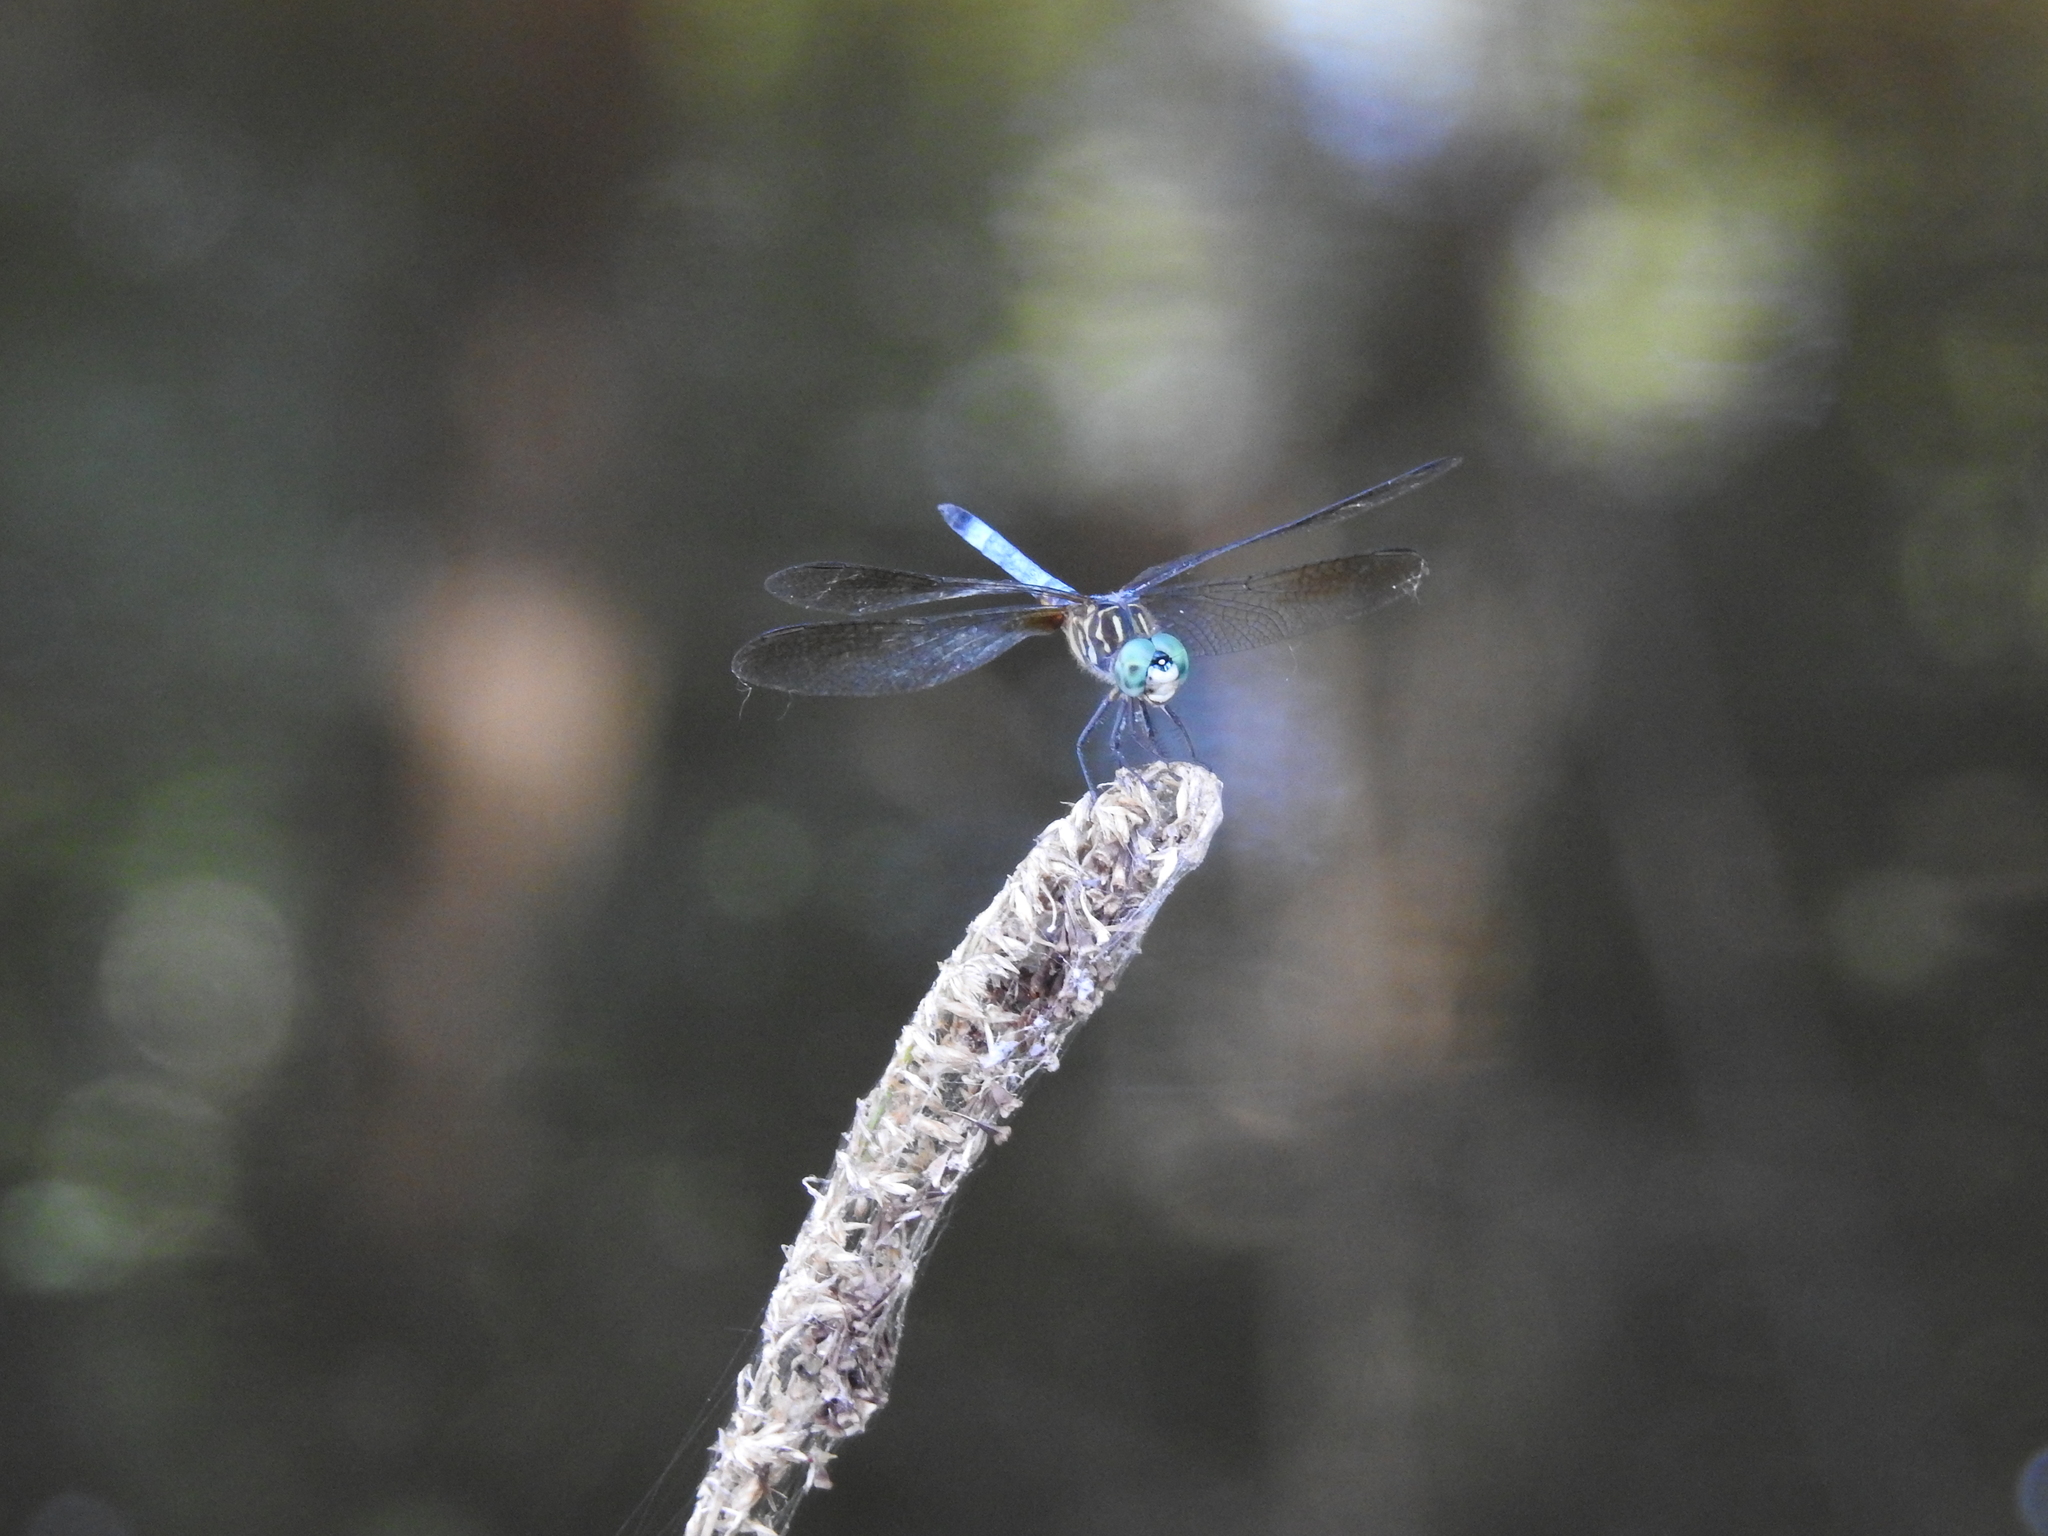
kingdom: Animalia
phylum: Arthropoda
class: Insecta
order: Odonata
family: Libellulidae
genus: Pachydiplax
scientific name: Pachydiplax longipennis
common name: Blue dasher
